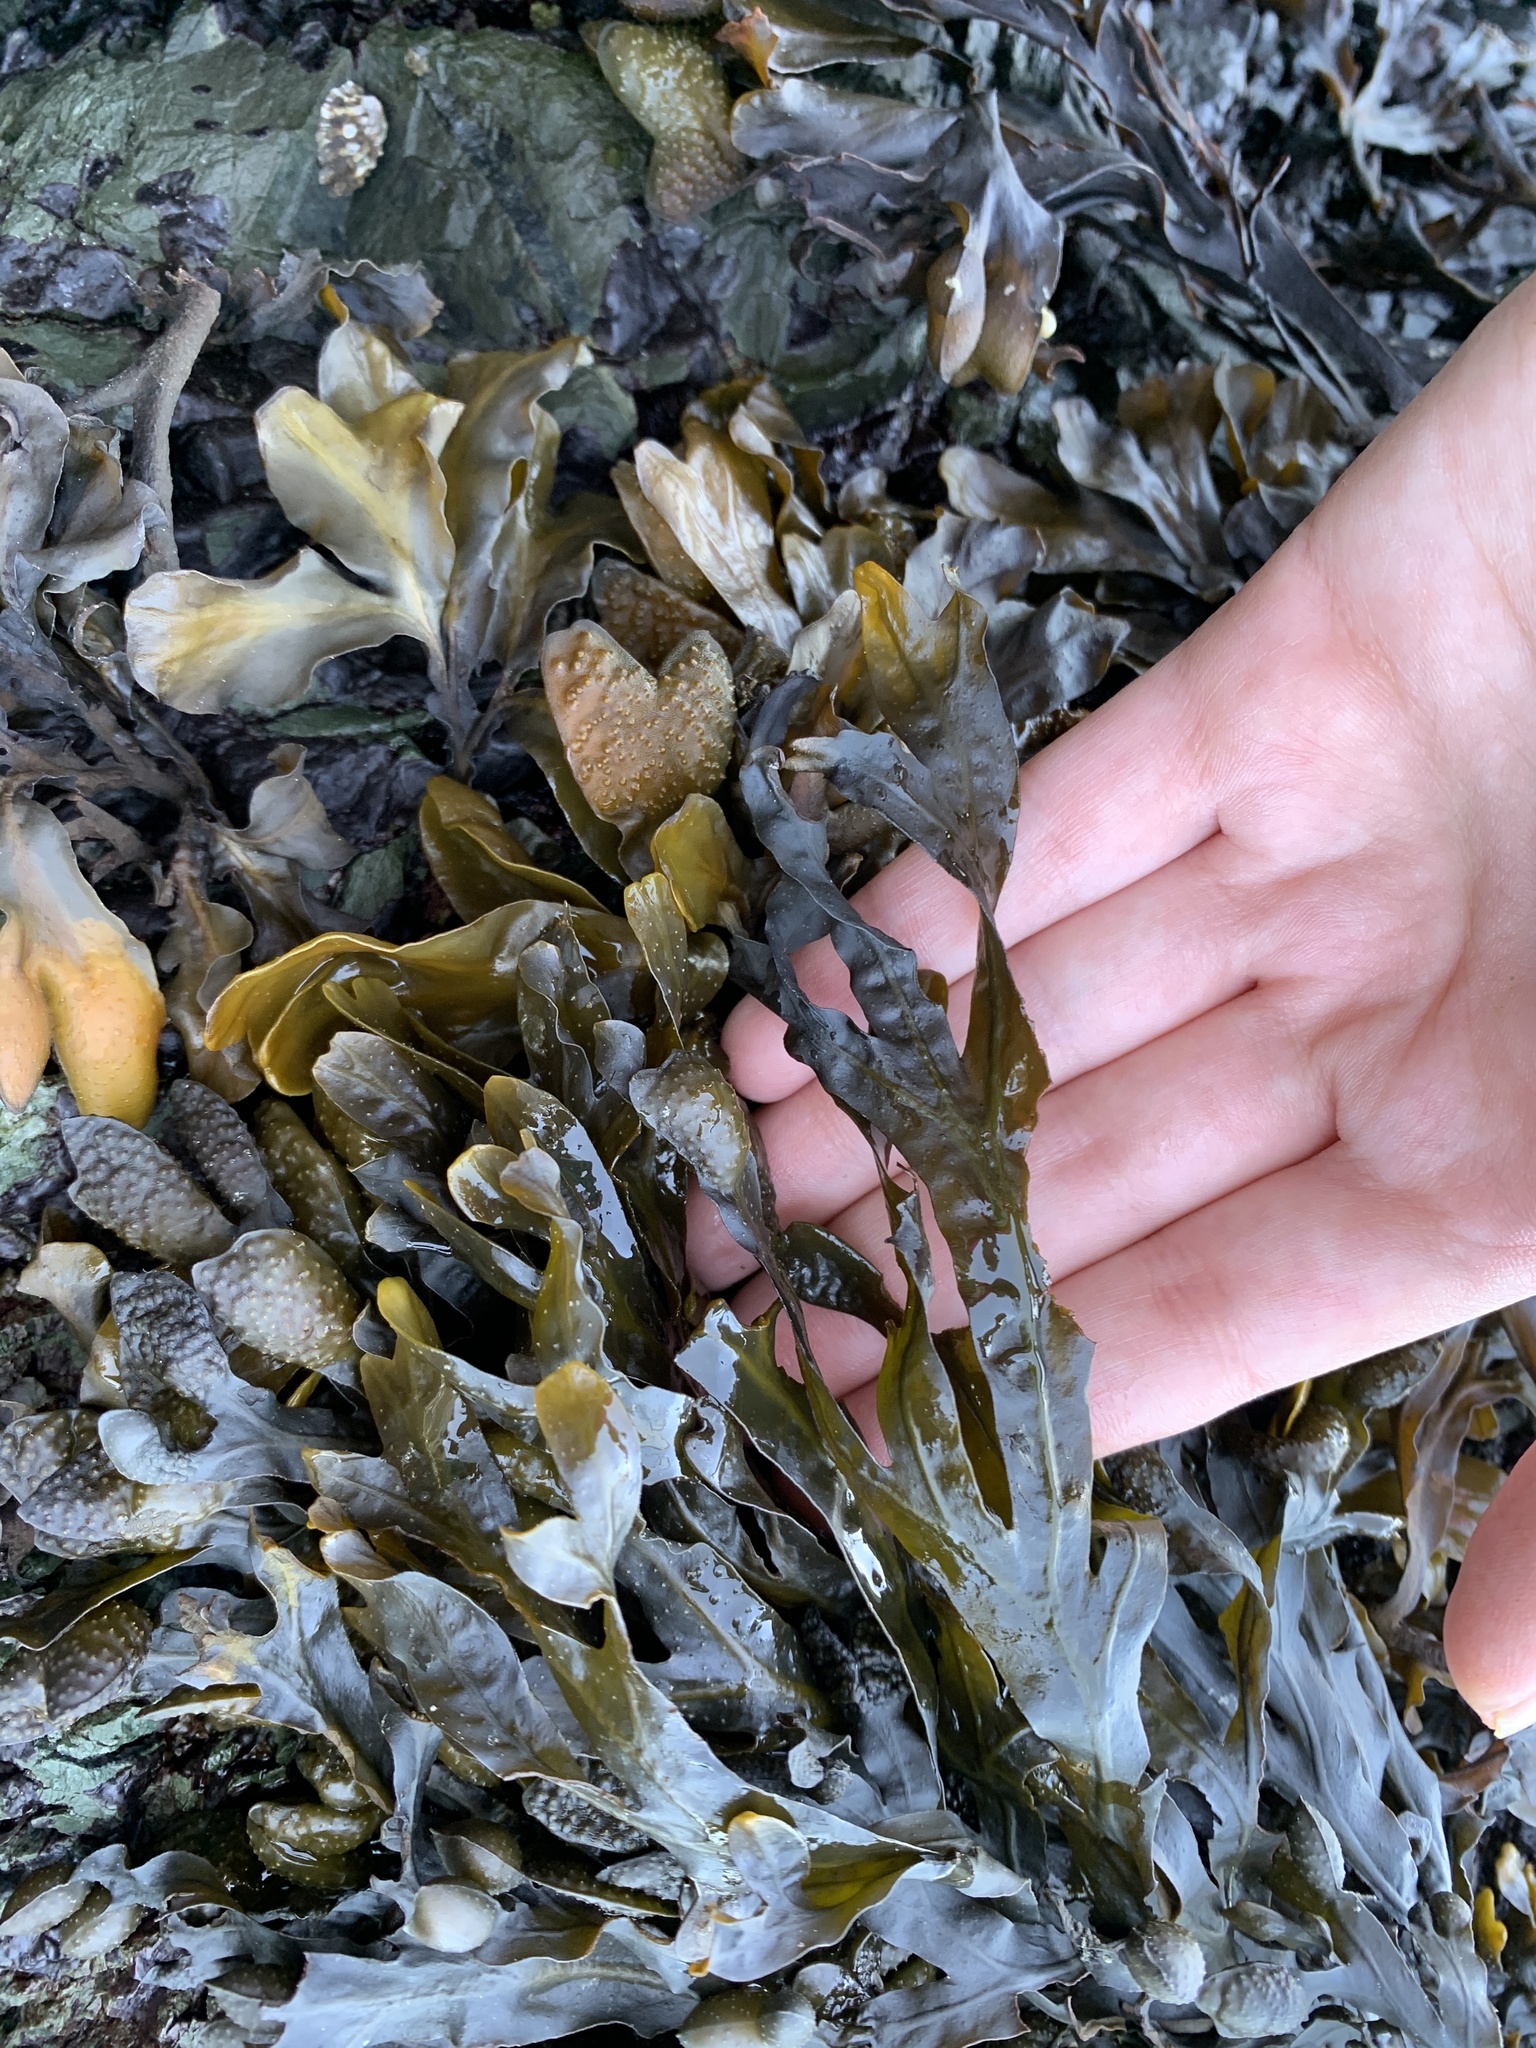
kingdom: Chromista
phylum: Ochrophyta
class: Phaeophyceae
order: Fucales
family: Fucaceae
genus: Fucus
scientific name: Fucus distichus
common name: Rockweed
